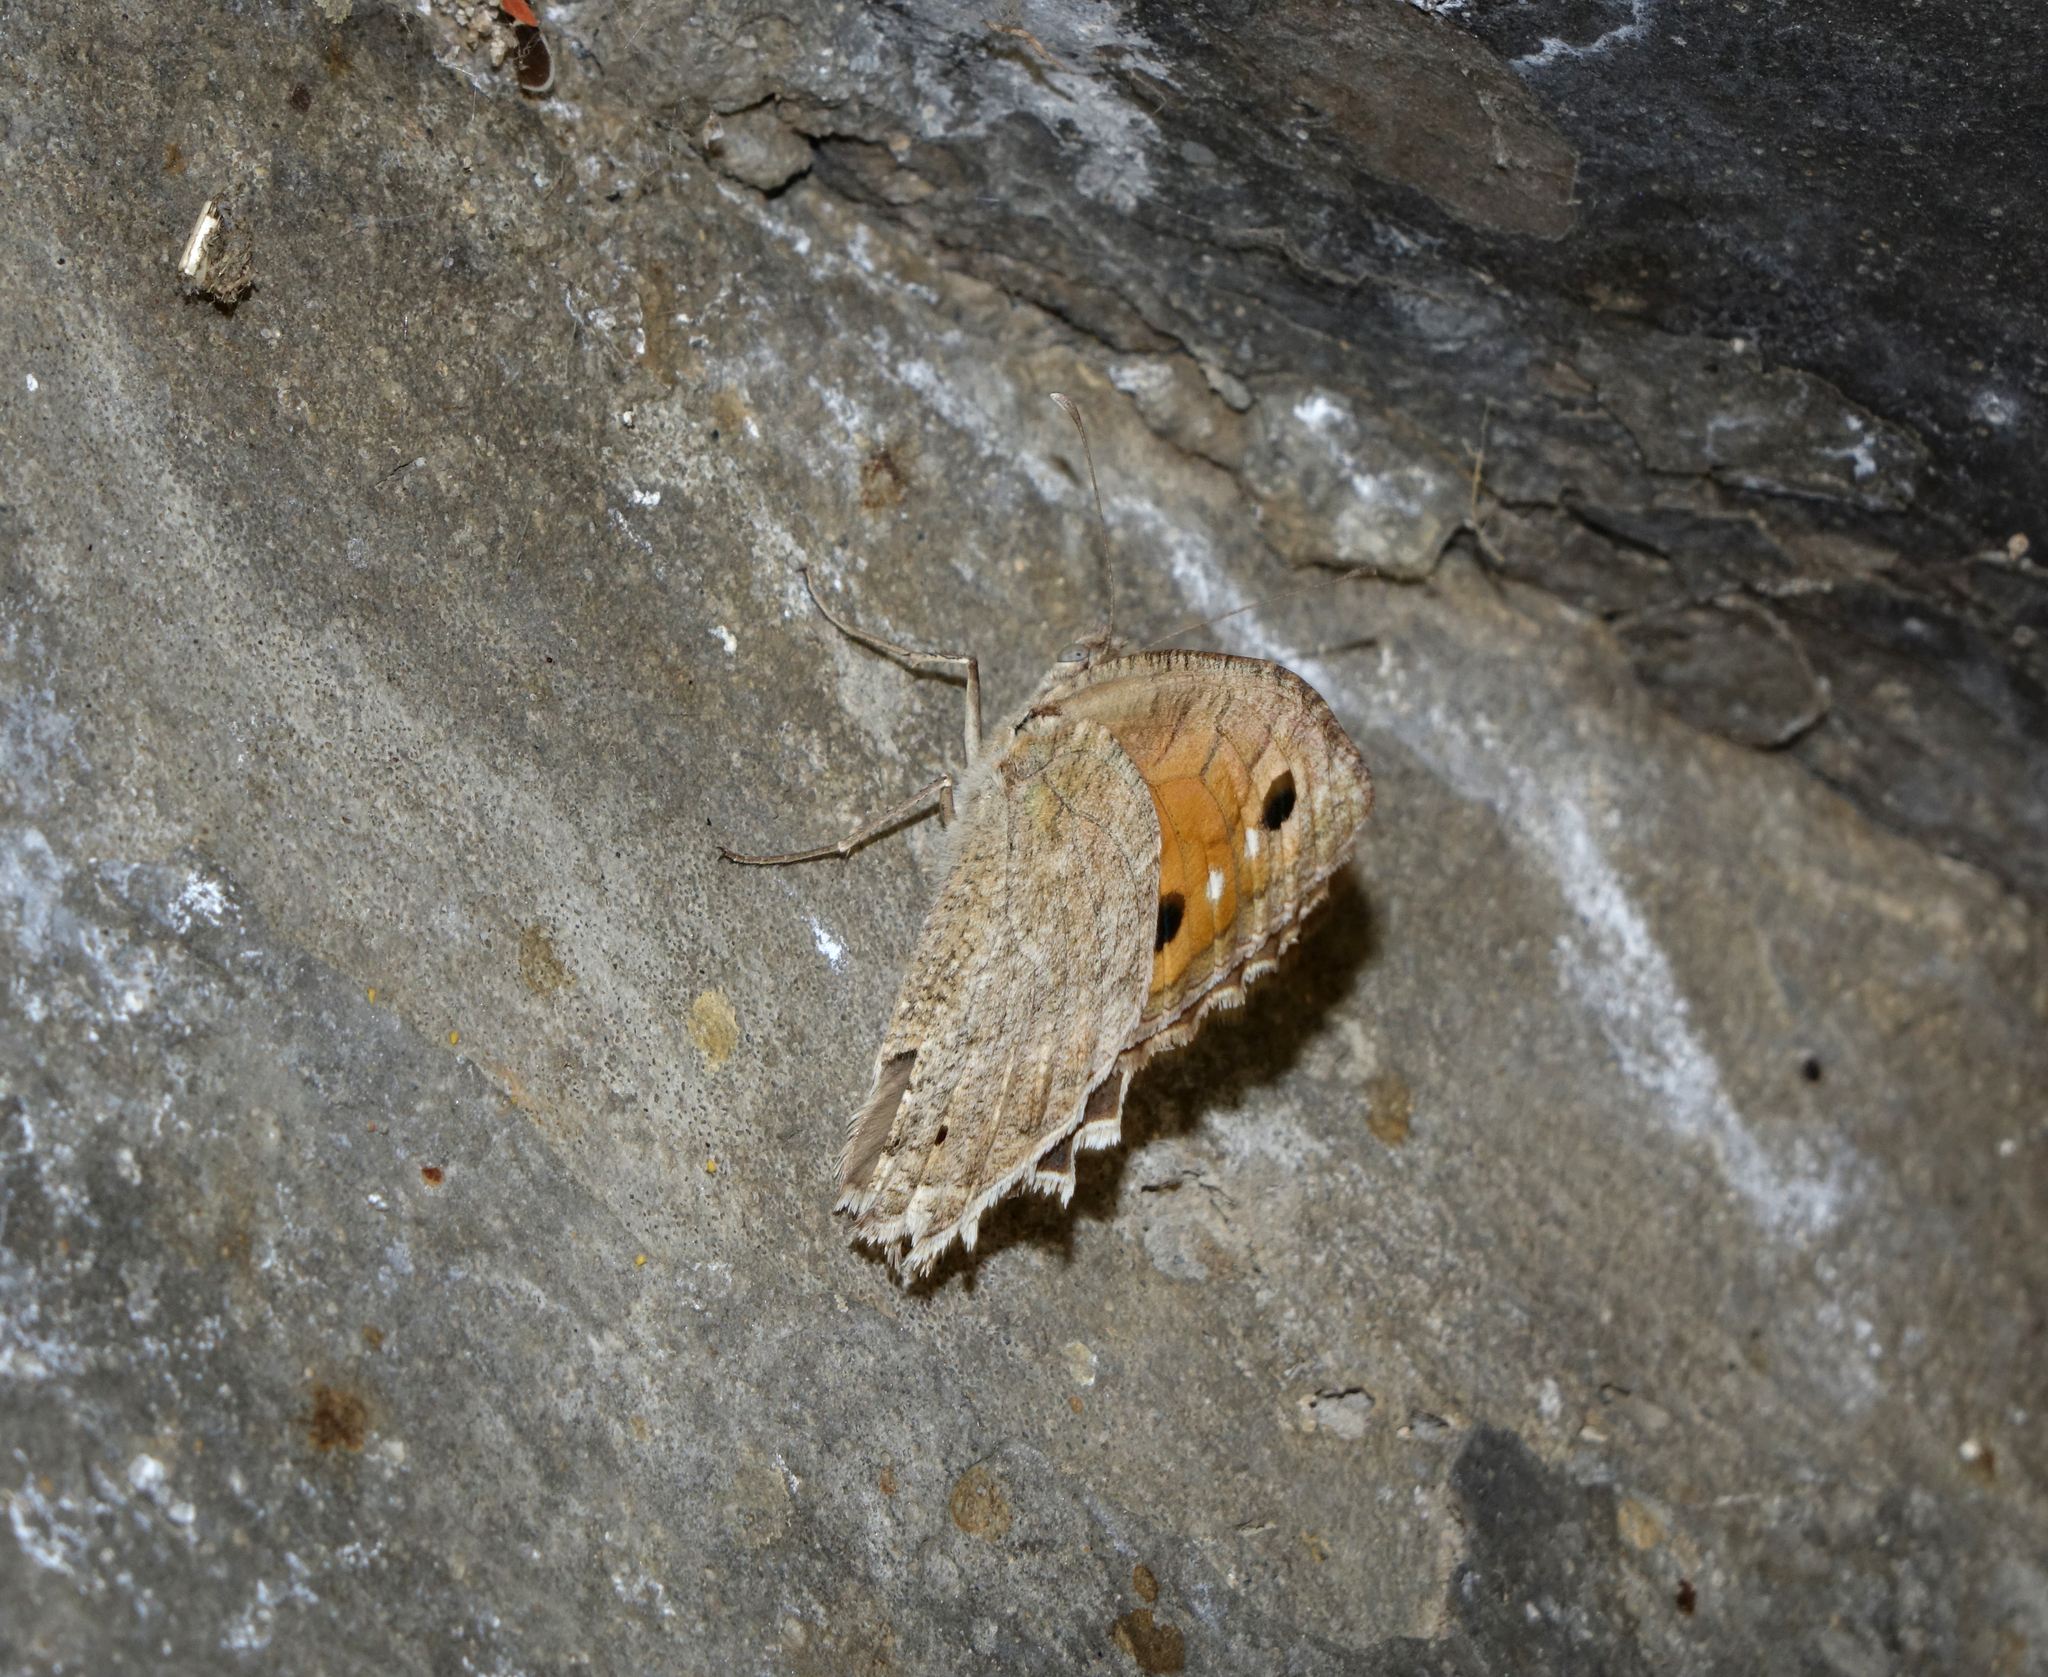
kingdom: Animalia
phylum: Arthropoda
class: Insecta
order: Lepidoptera
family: Nymphalidae
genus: Pseudochazara
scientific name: Pseudochazara pelopea
